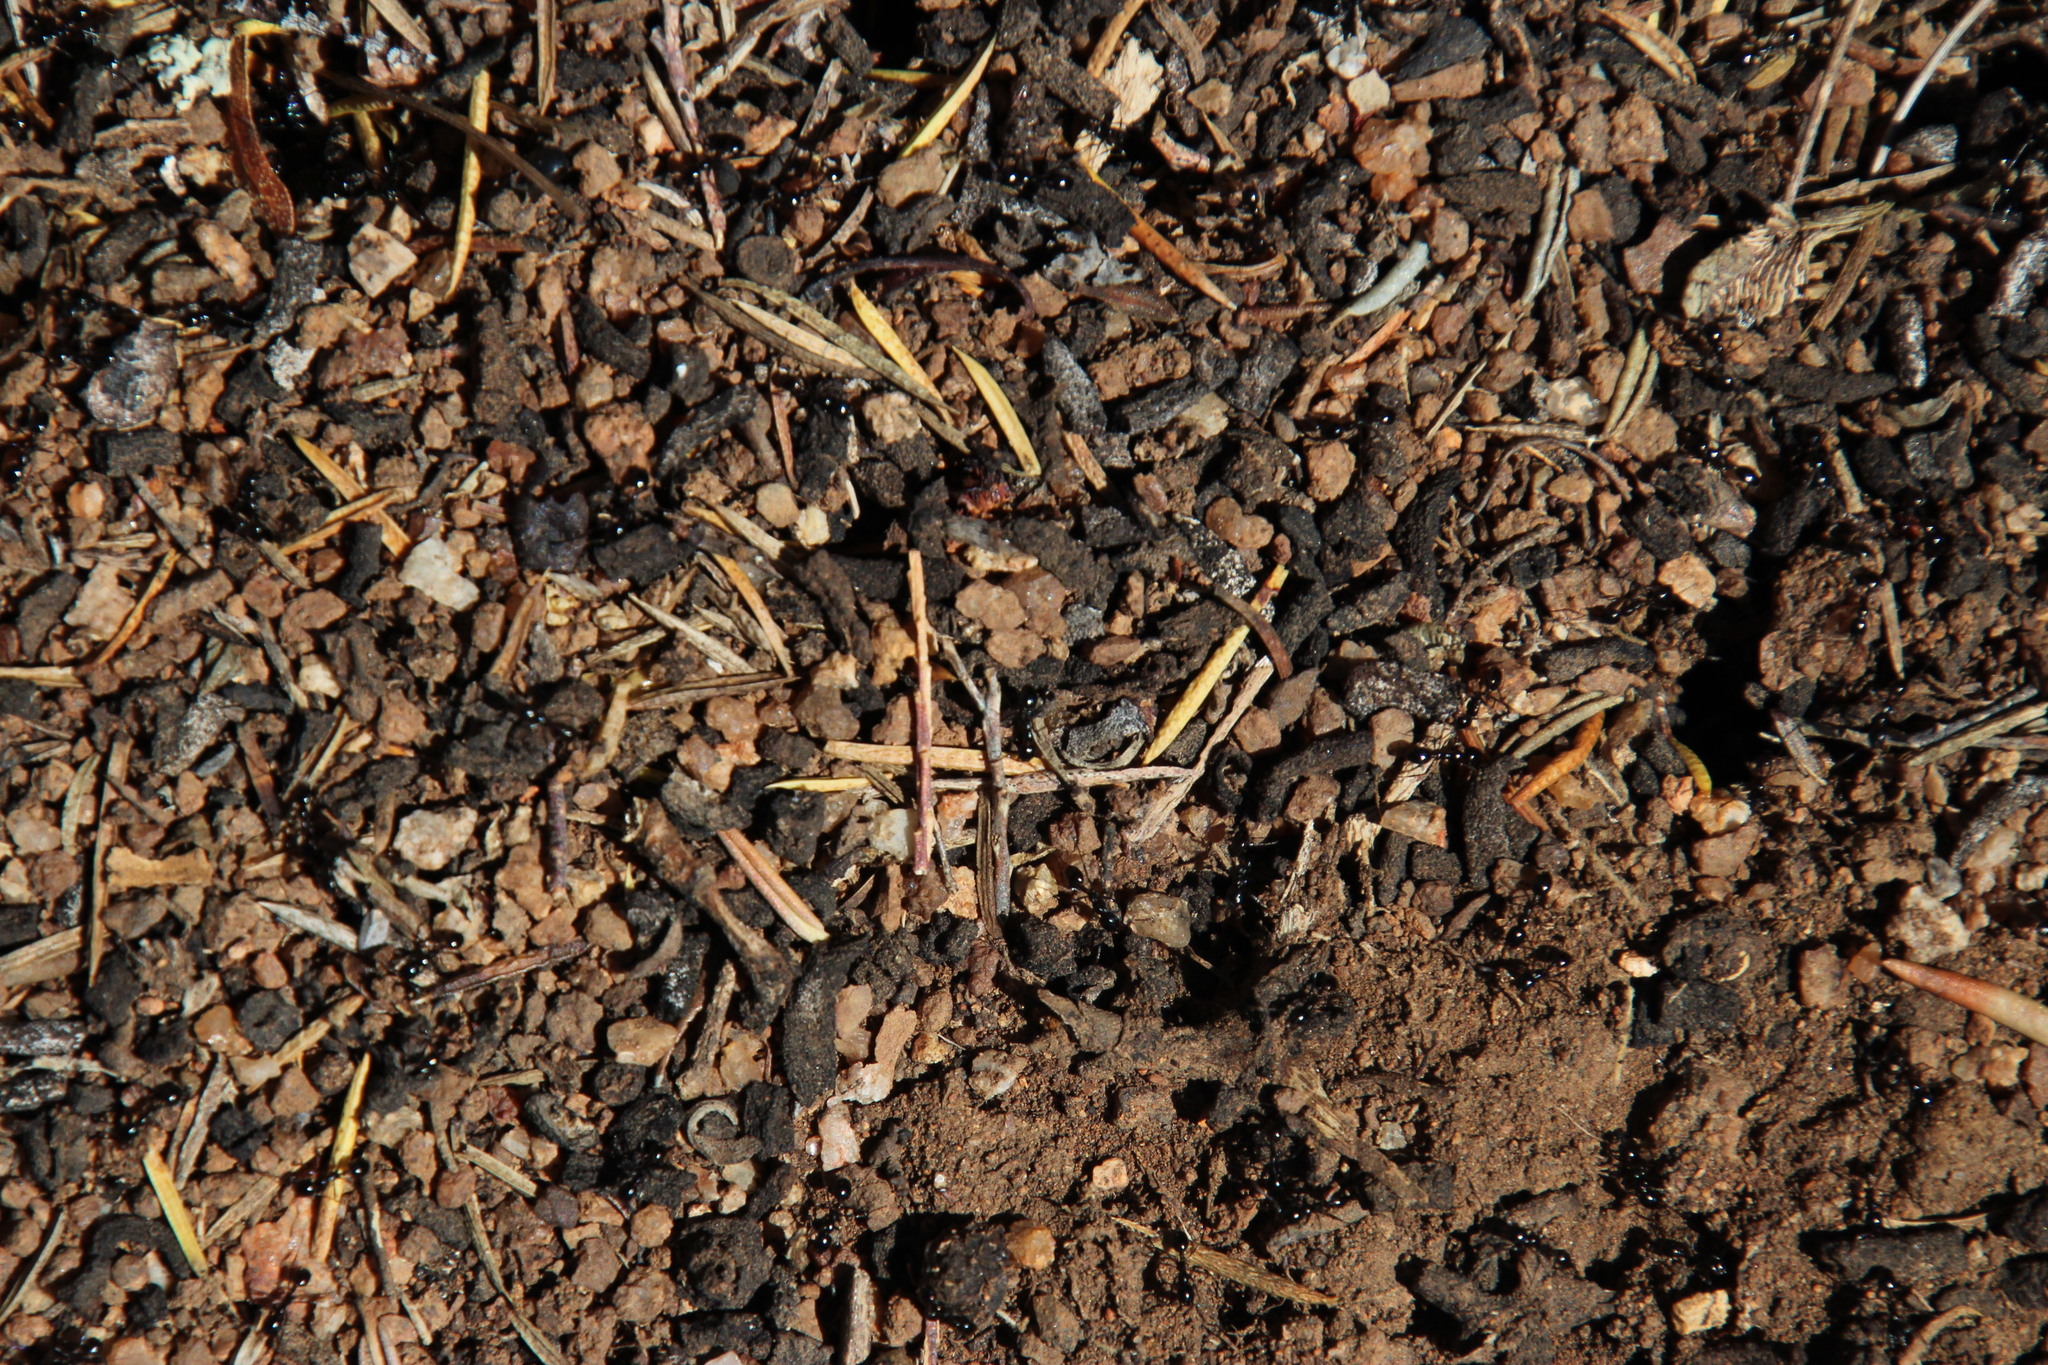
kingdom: Animalia
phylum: Arthropoda
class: Insecta
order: Hymenoptera
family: Formicidae
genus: Monomorium
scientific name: Monomorium fridae
